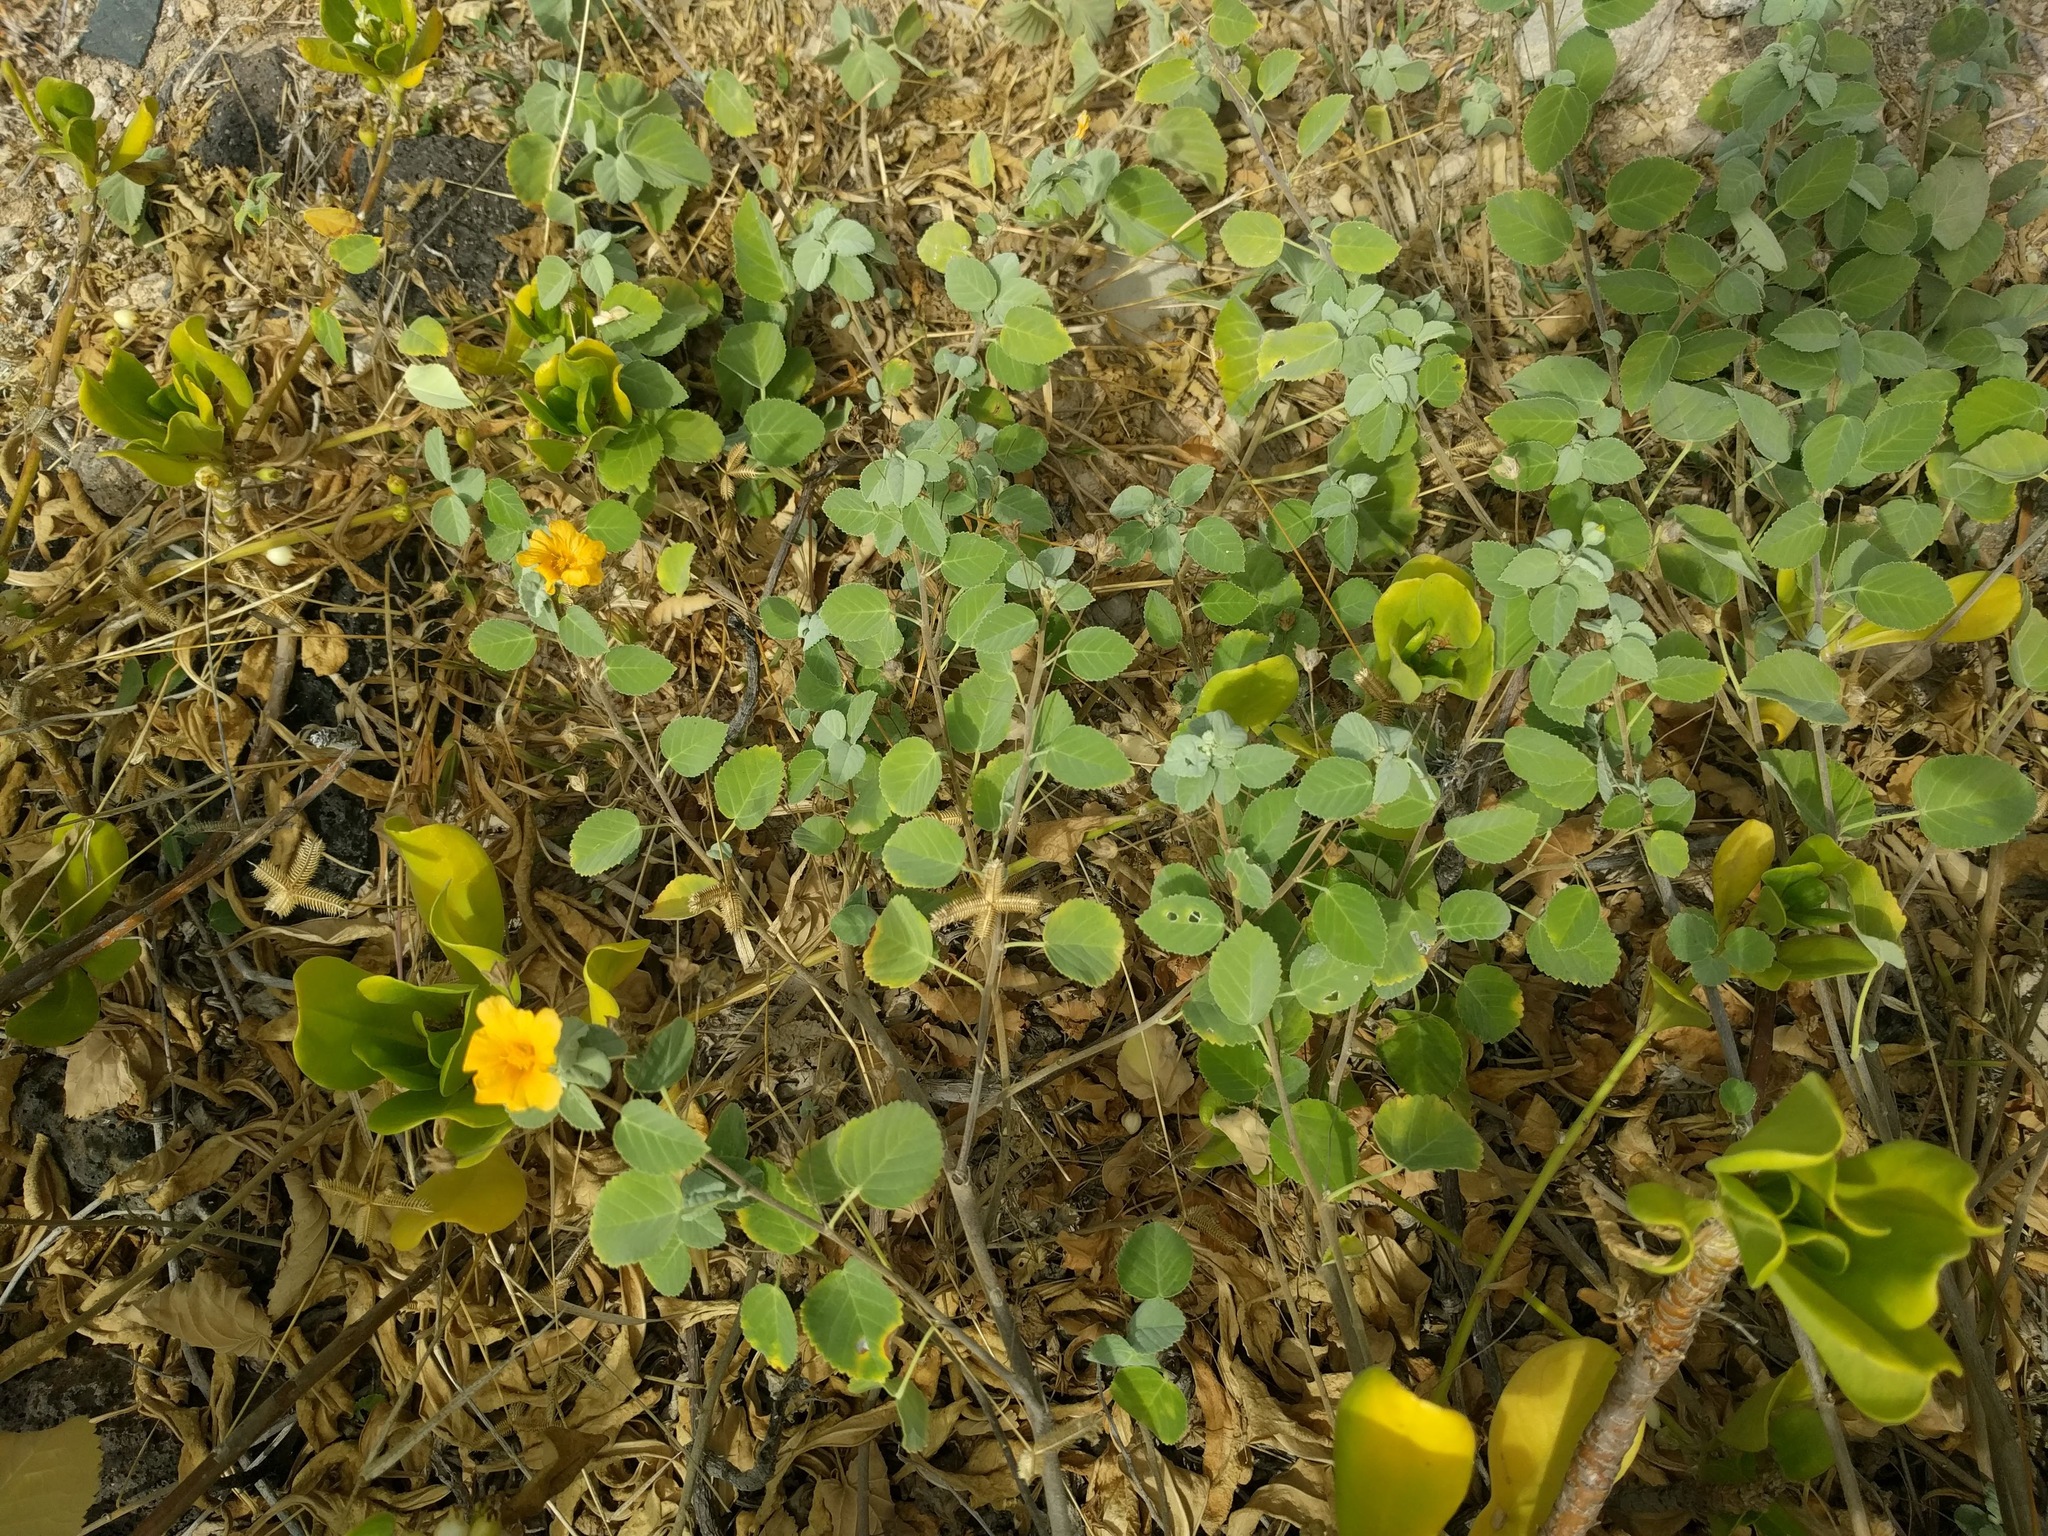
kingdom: Plantae
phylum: Tracheophyta
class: Magnoliopsida
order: Malvales
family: Malvaceae
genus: Sida
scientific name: Sida fallax
